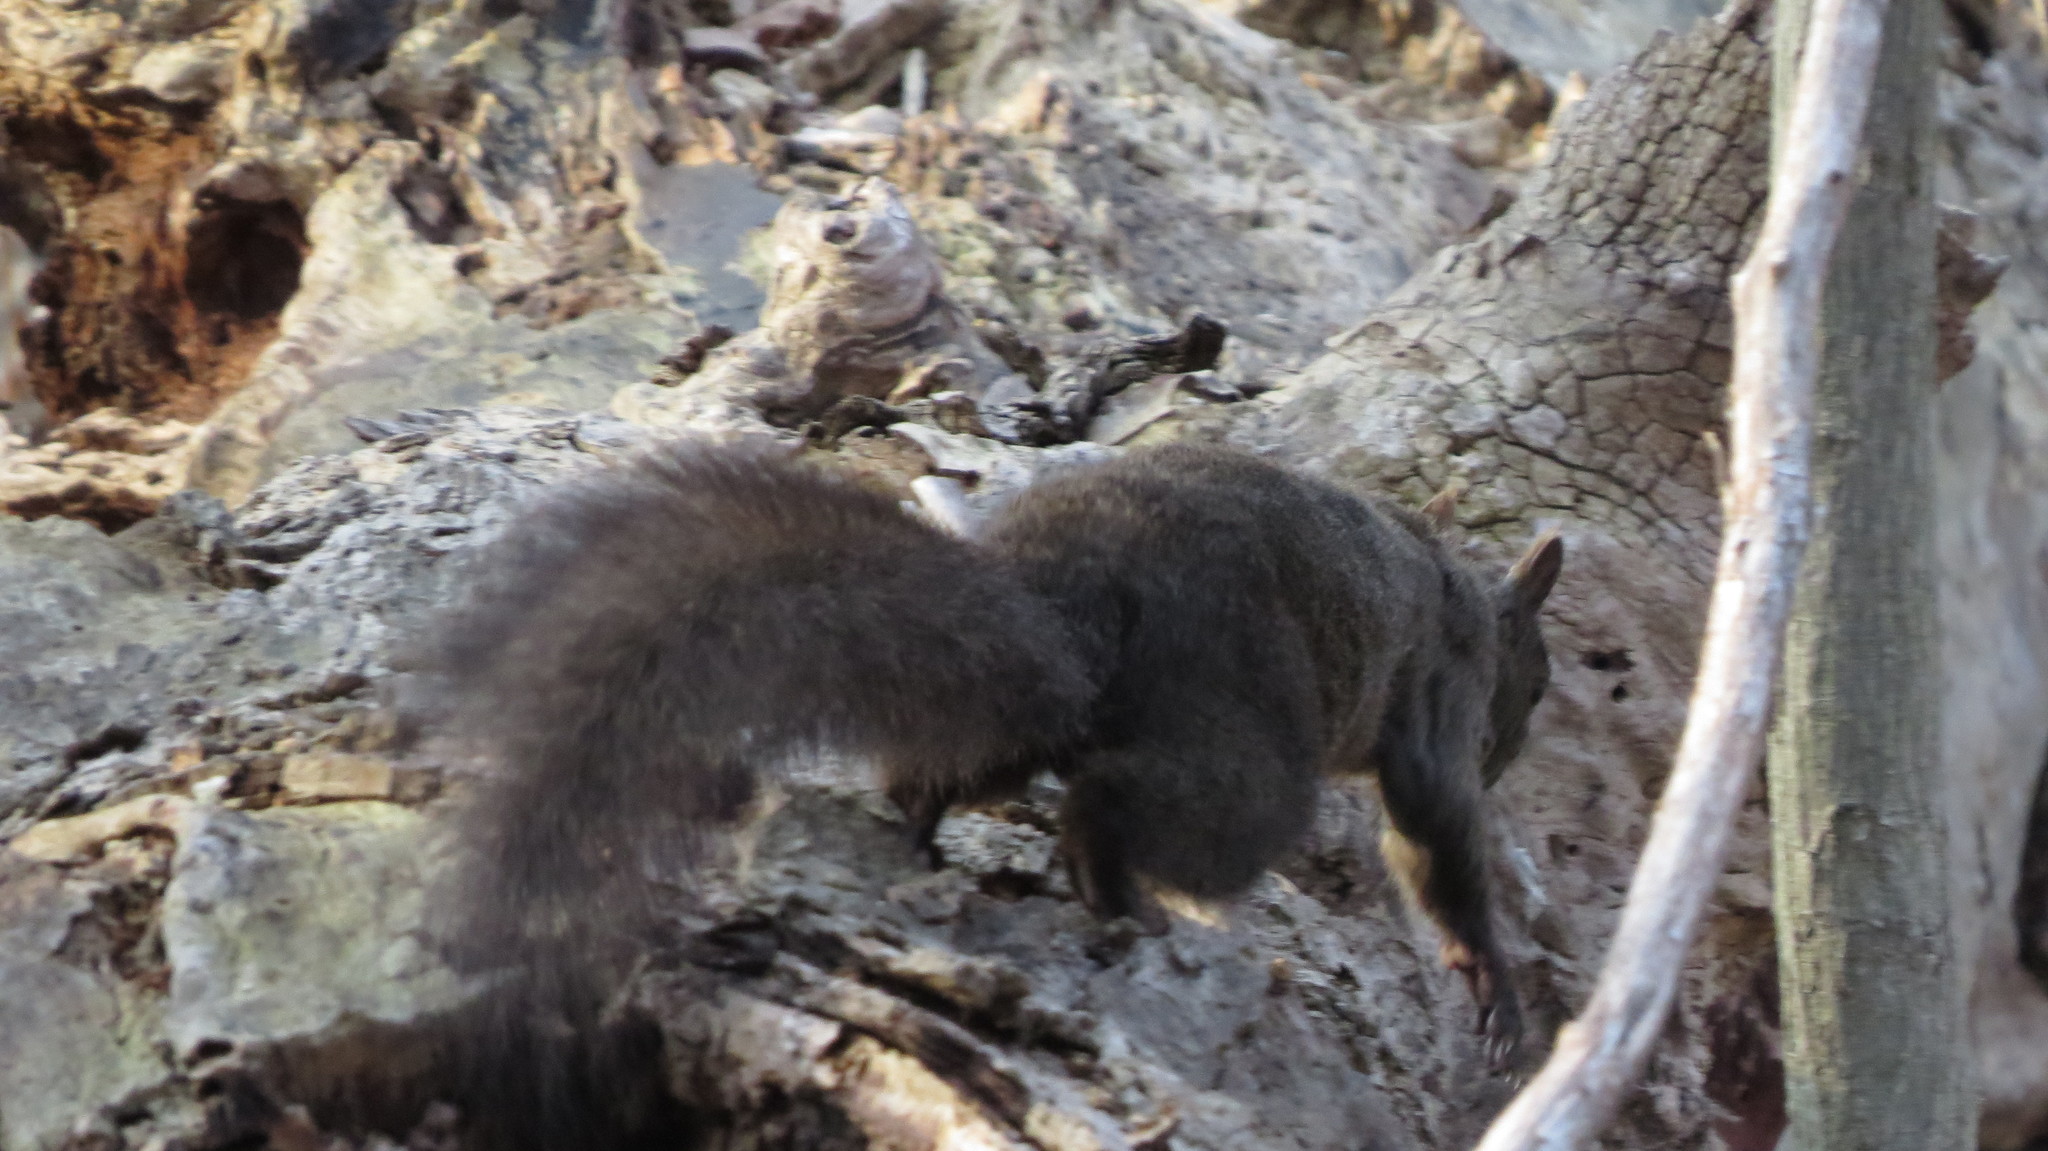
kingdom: Animalia
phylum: Chordata
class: Mammalia
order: Rodentia
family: Sciuridae
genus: Sciurus
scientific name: Sciurus carolinensis
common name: Eastern gray squirrel
